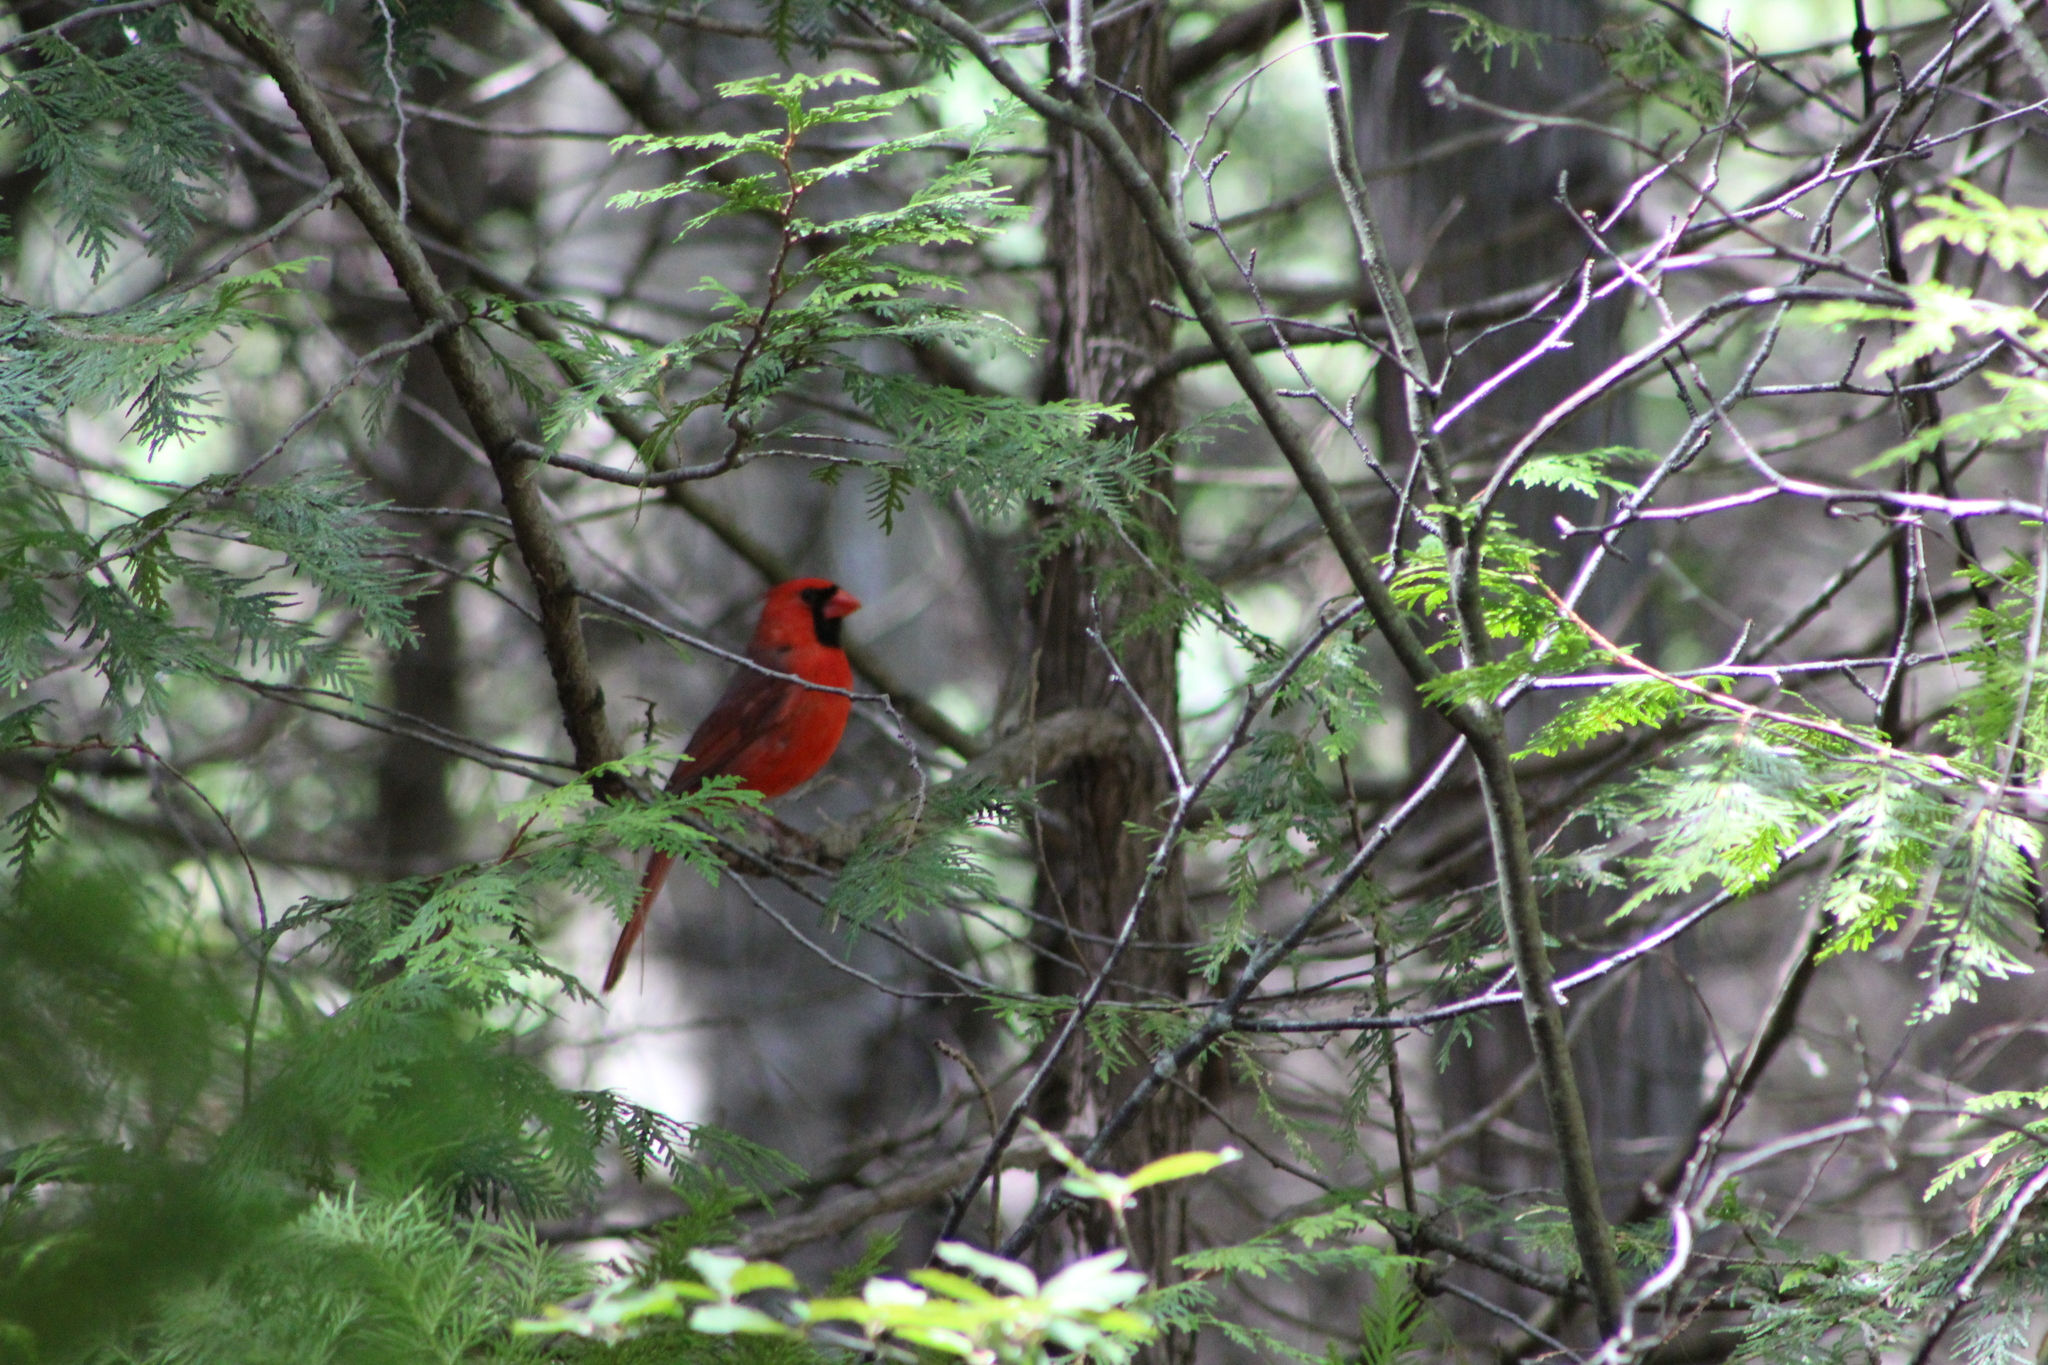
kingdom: Animalia
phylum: Chordata
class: Aves
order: Passeriformes
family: Cardinalidae
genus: Cardinalis
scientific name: Cardinalis cardinalis
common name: Northern cardinal
